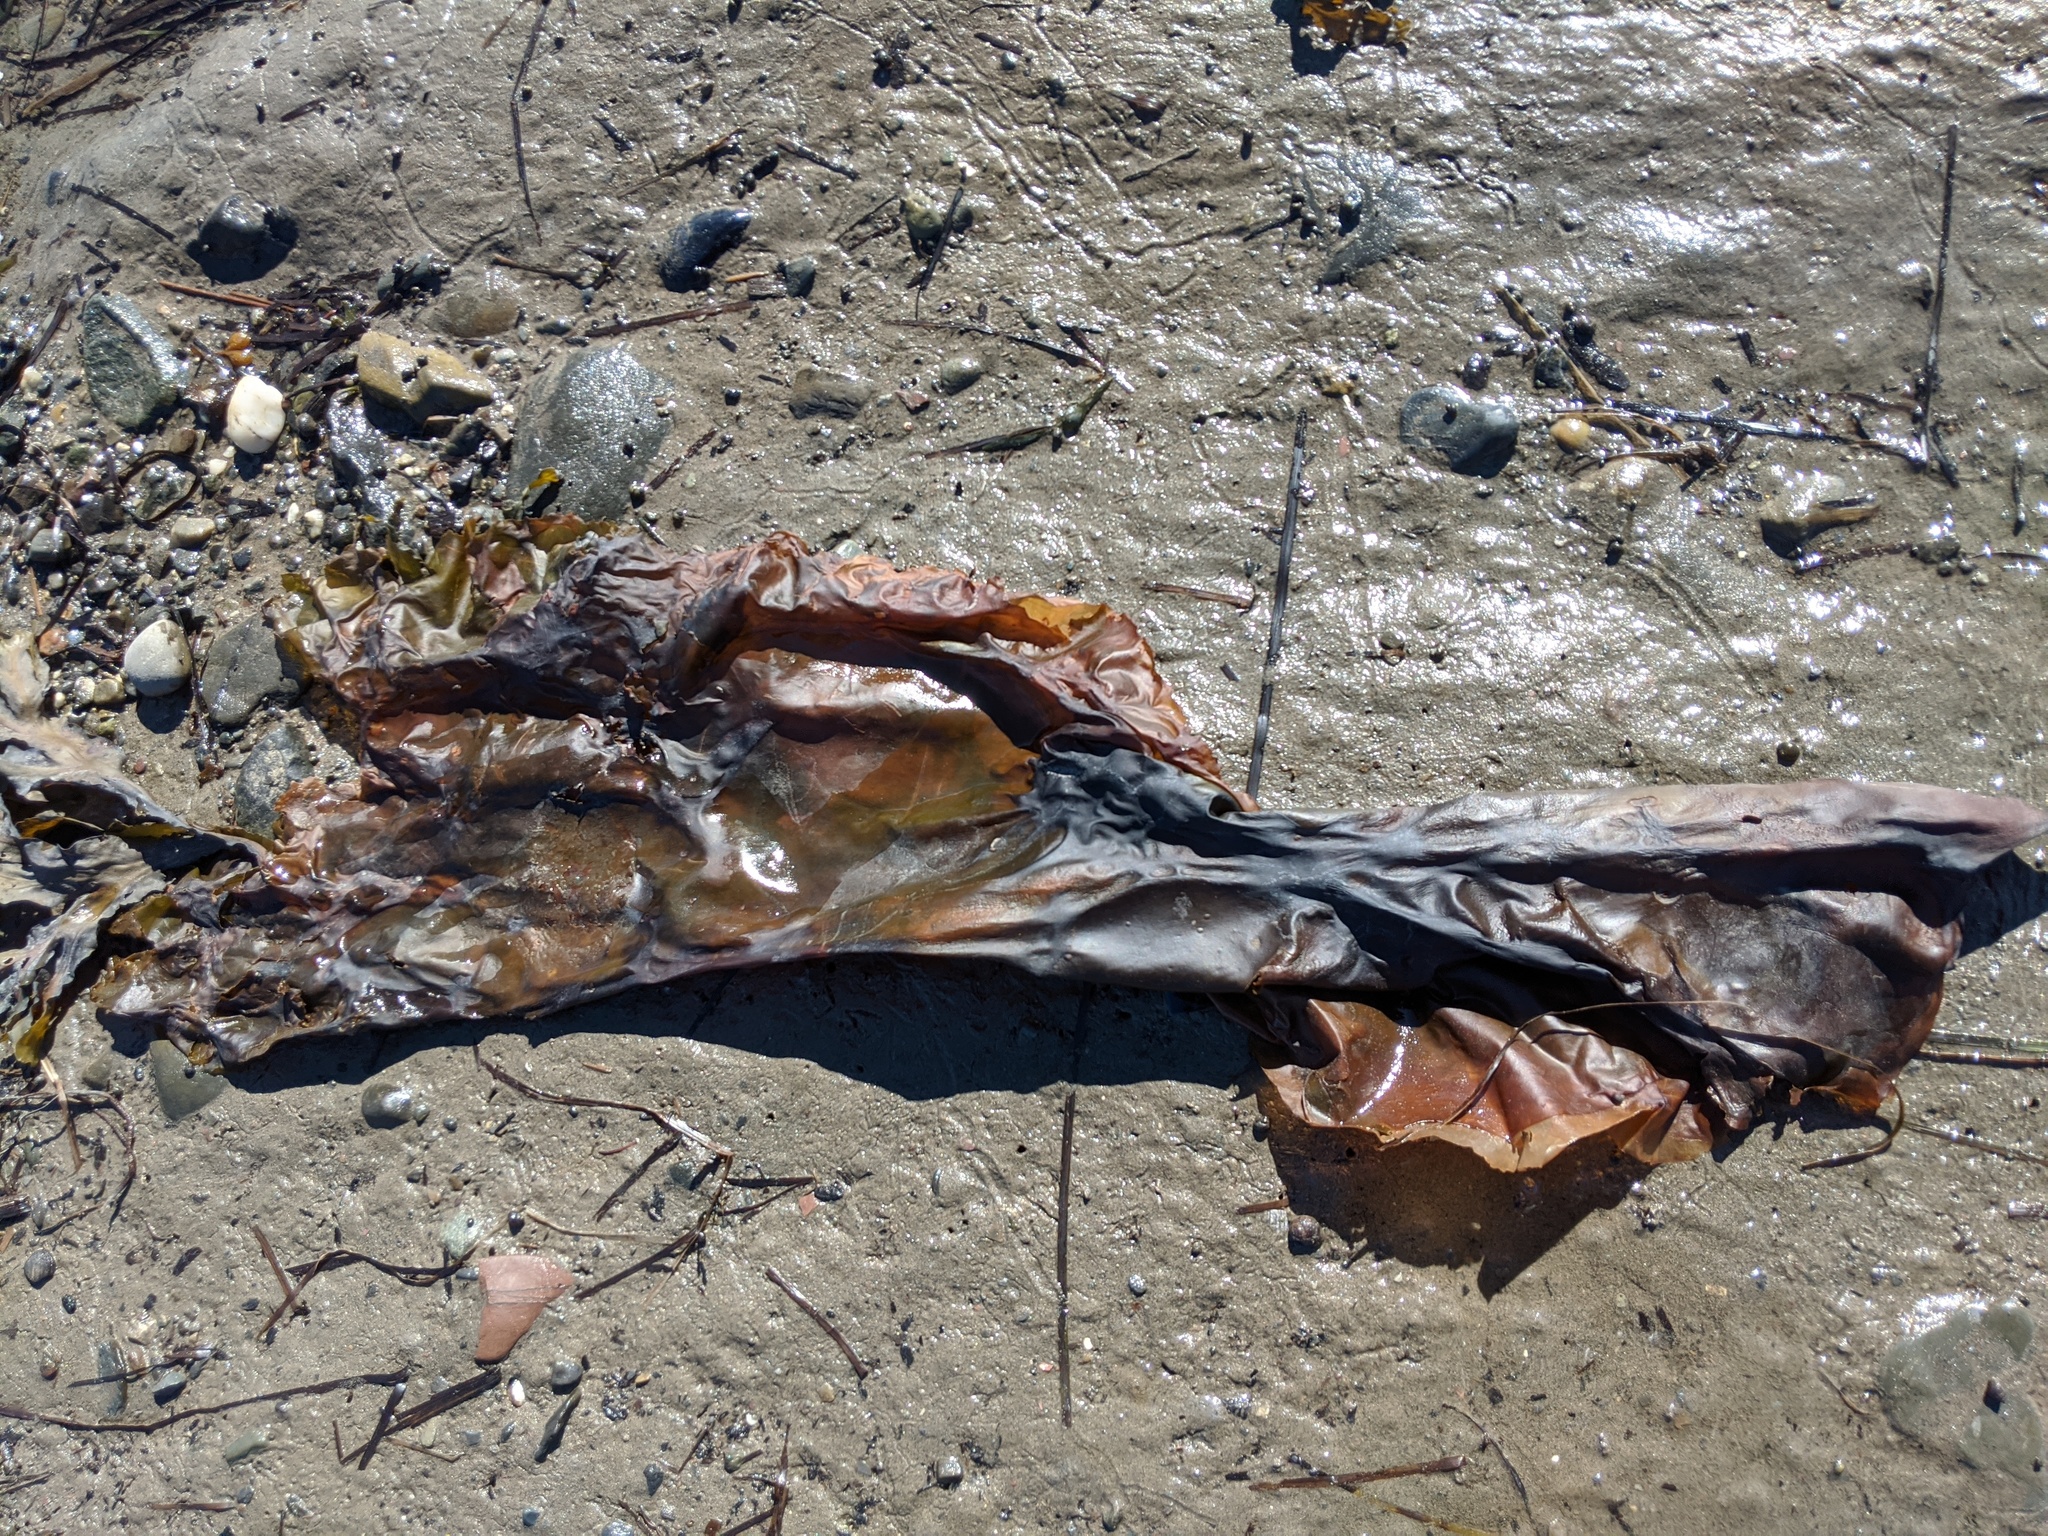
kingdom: Chromista
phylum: Ochrophyta
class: Phaeophyceae
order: Laminariales
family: Laminariaceae
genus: Saccharina
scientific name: Saccharina longicruris
